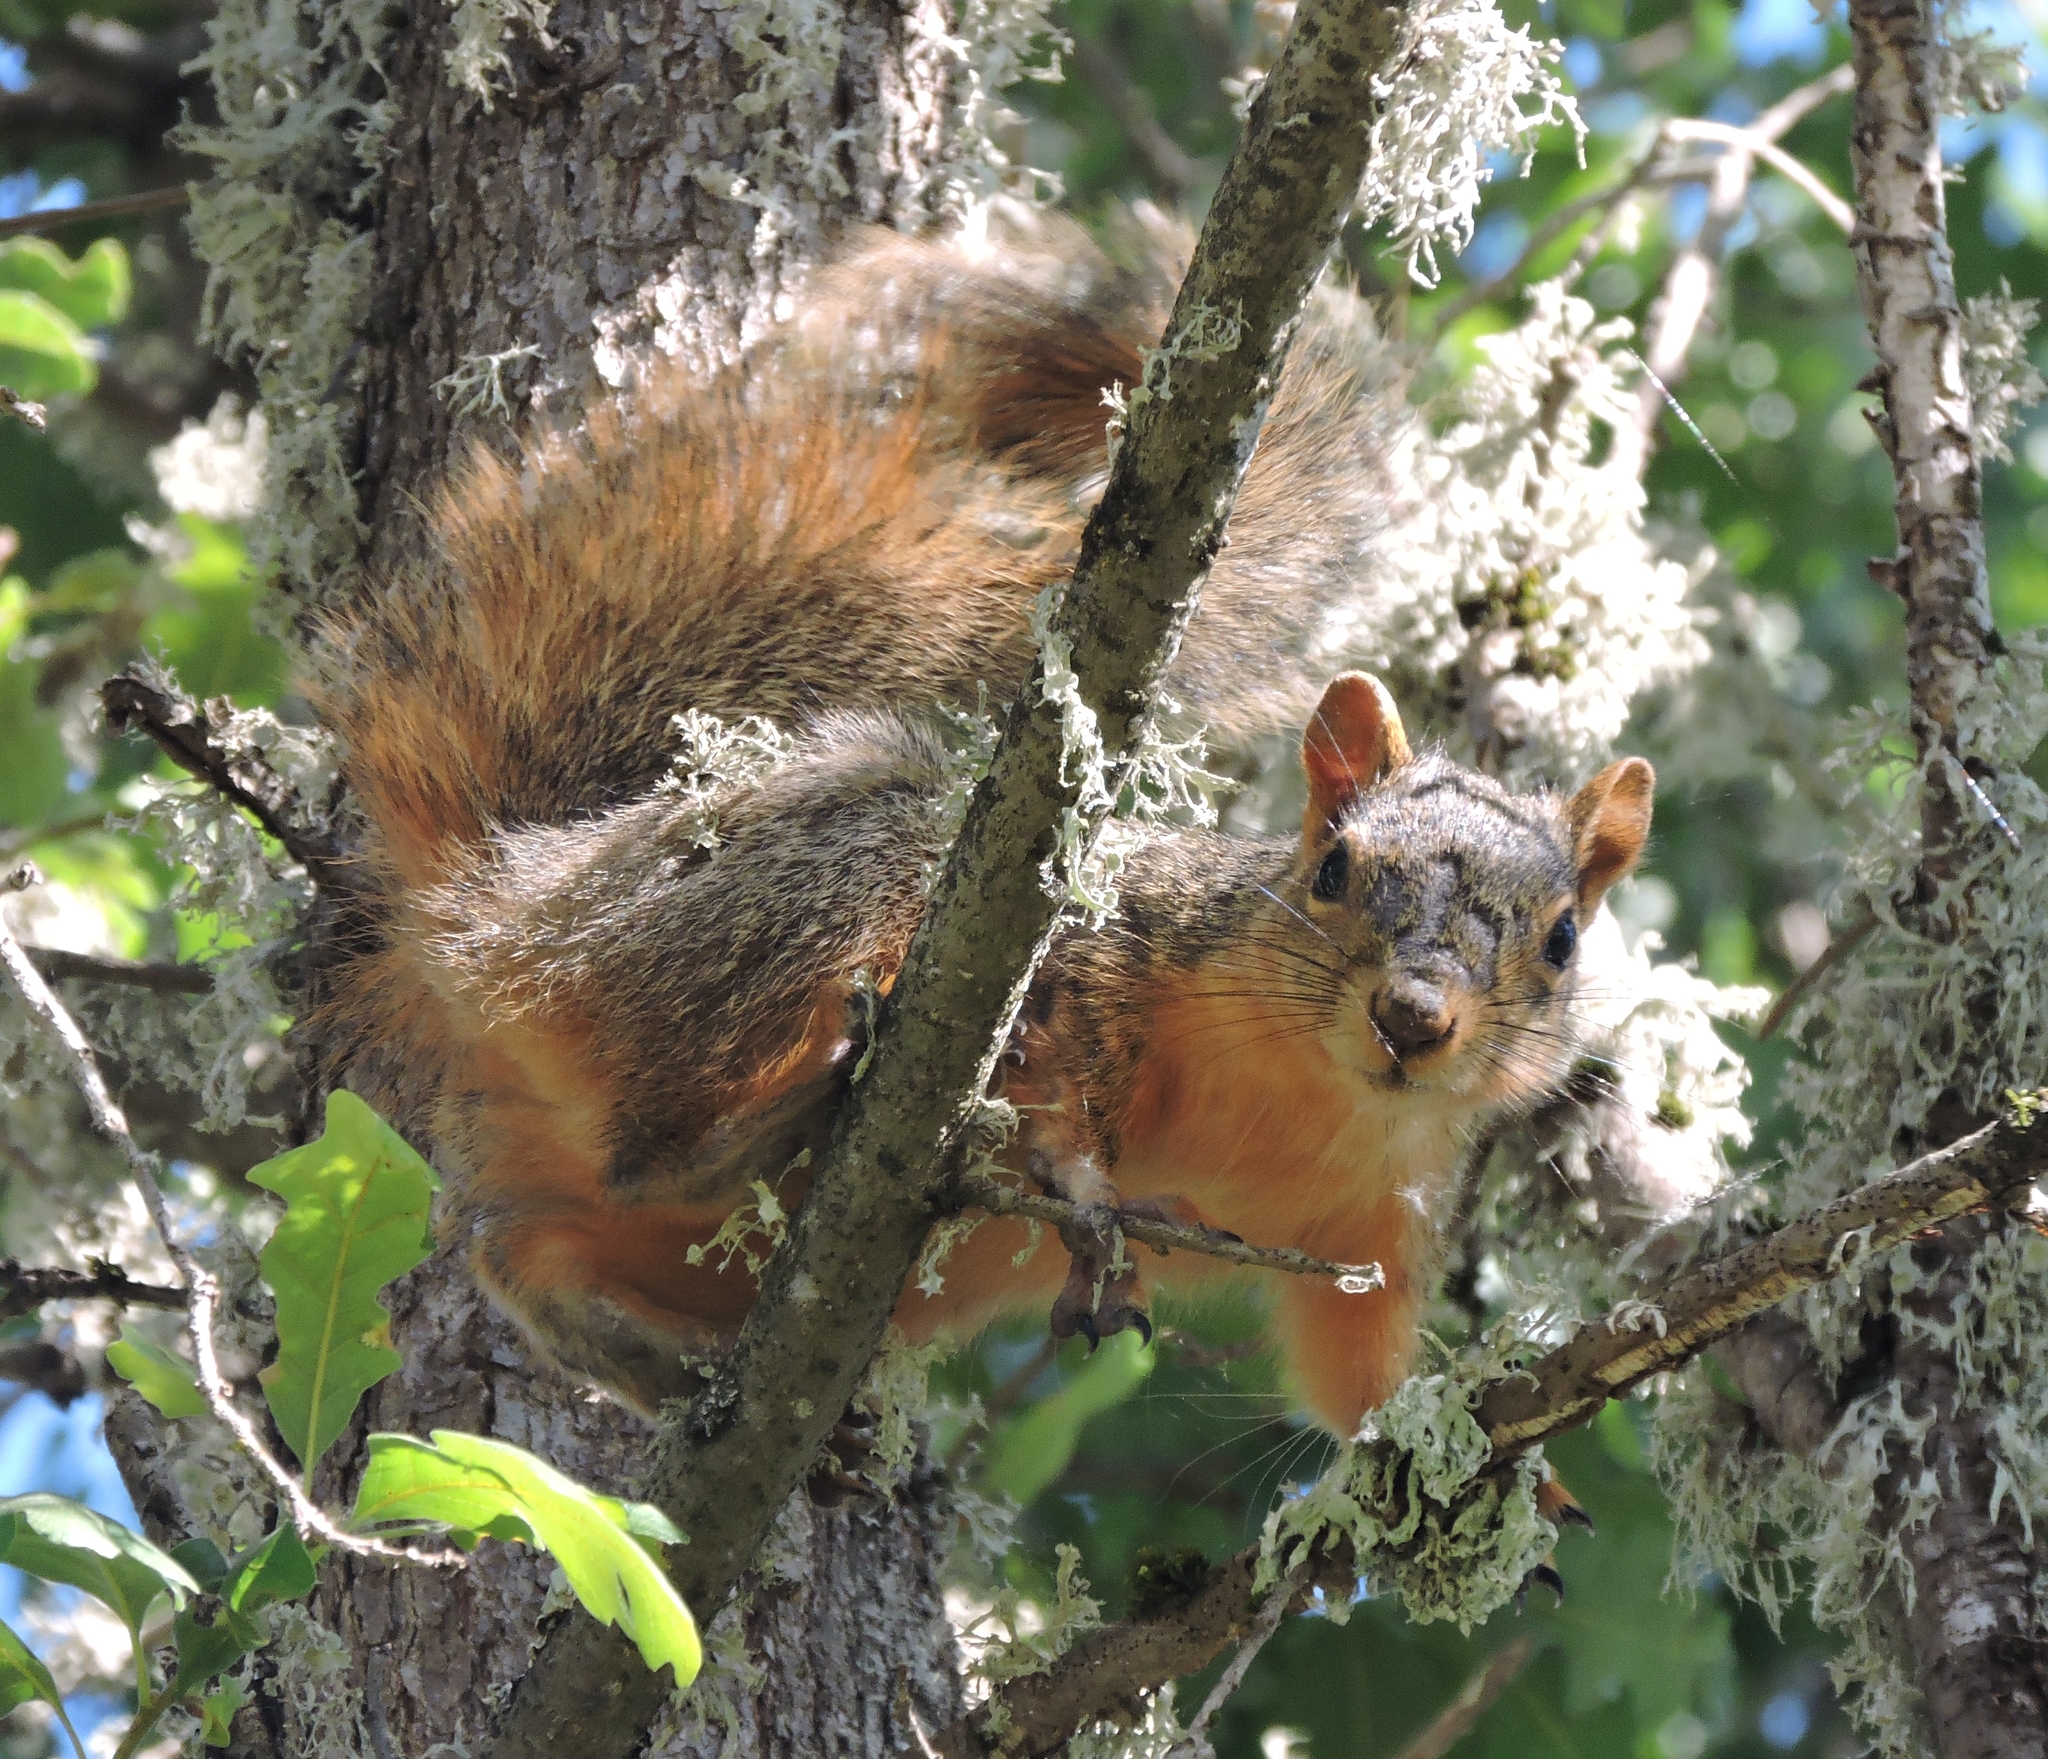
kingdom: Animalia
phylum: Chordata
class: Mammalia
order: Rodentia
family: Sciuridae
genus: Sciurus
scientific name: Sciurus niger
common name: Fox squirrel
